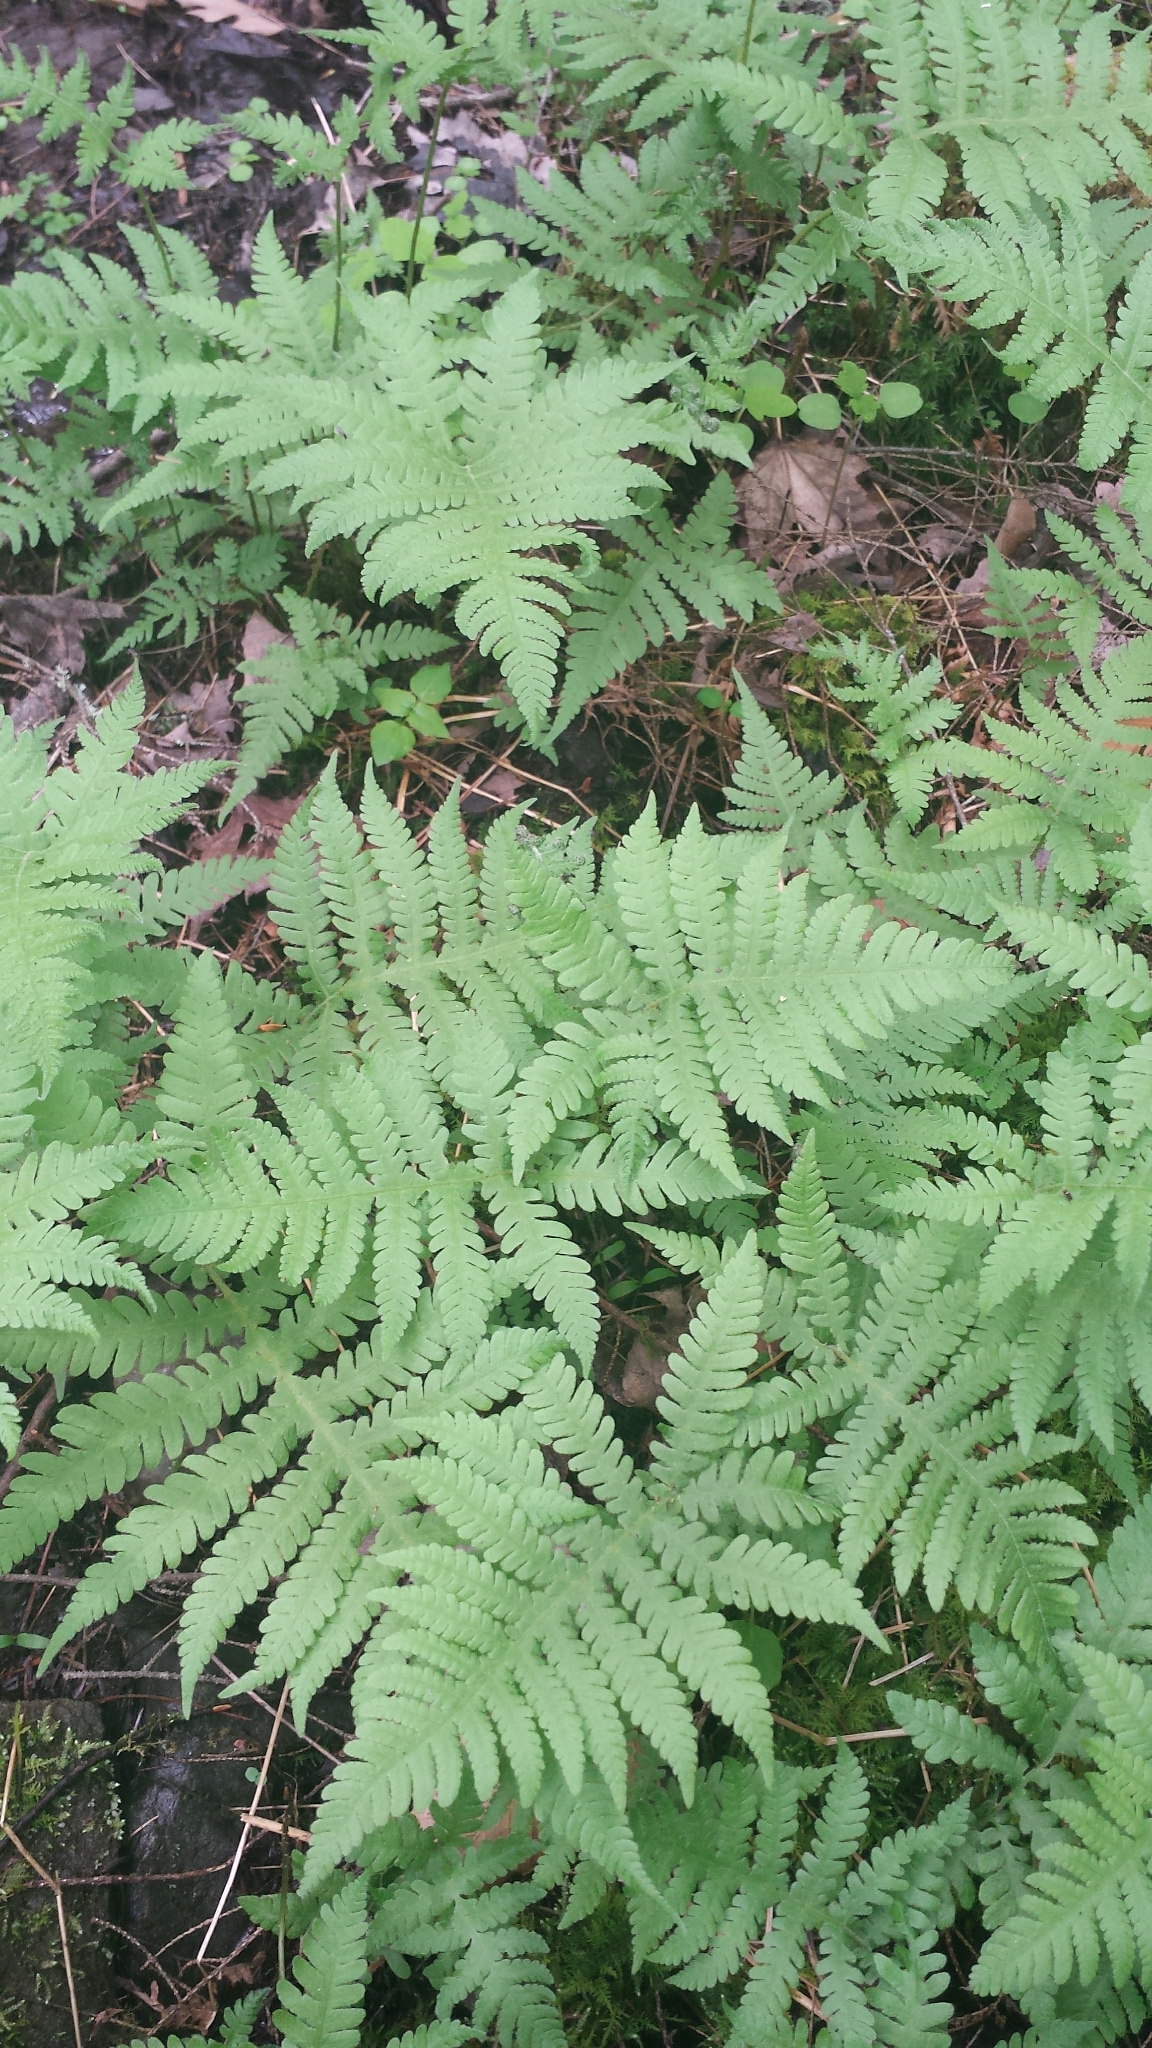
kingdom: Plantae
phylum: Tracheophyta
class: Polypodiopsida
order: Polypodiales
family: Thelypteridaceae
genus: Phegopteris
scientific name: Phegopteris connectilis
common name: Beech fern
